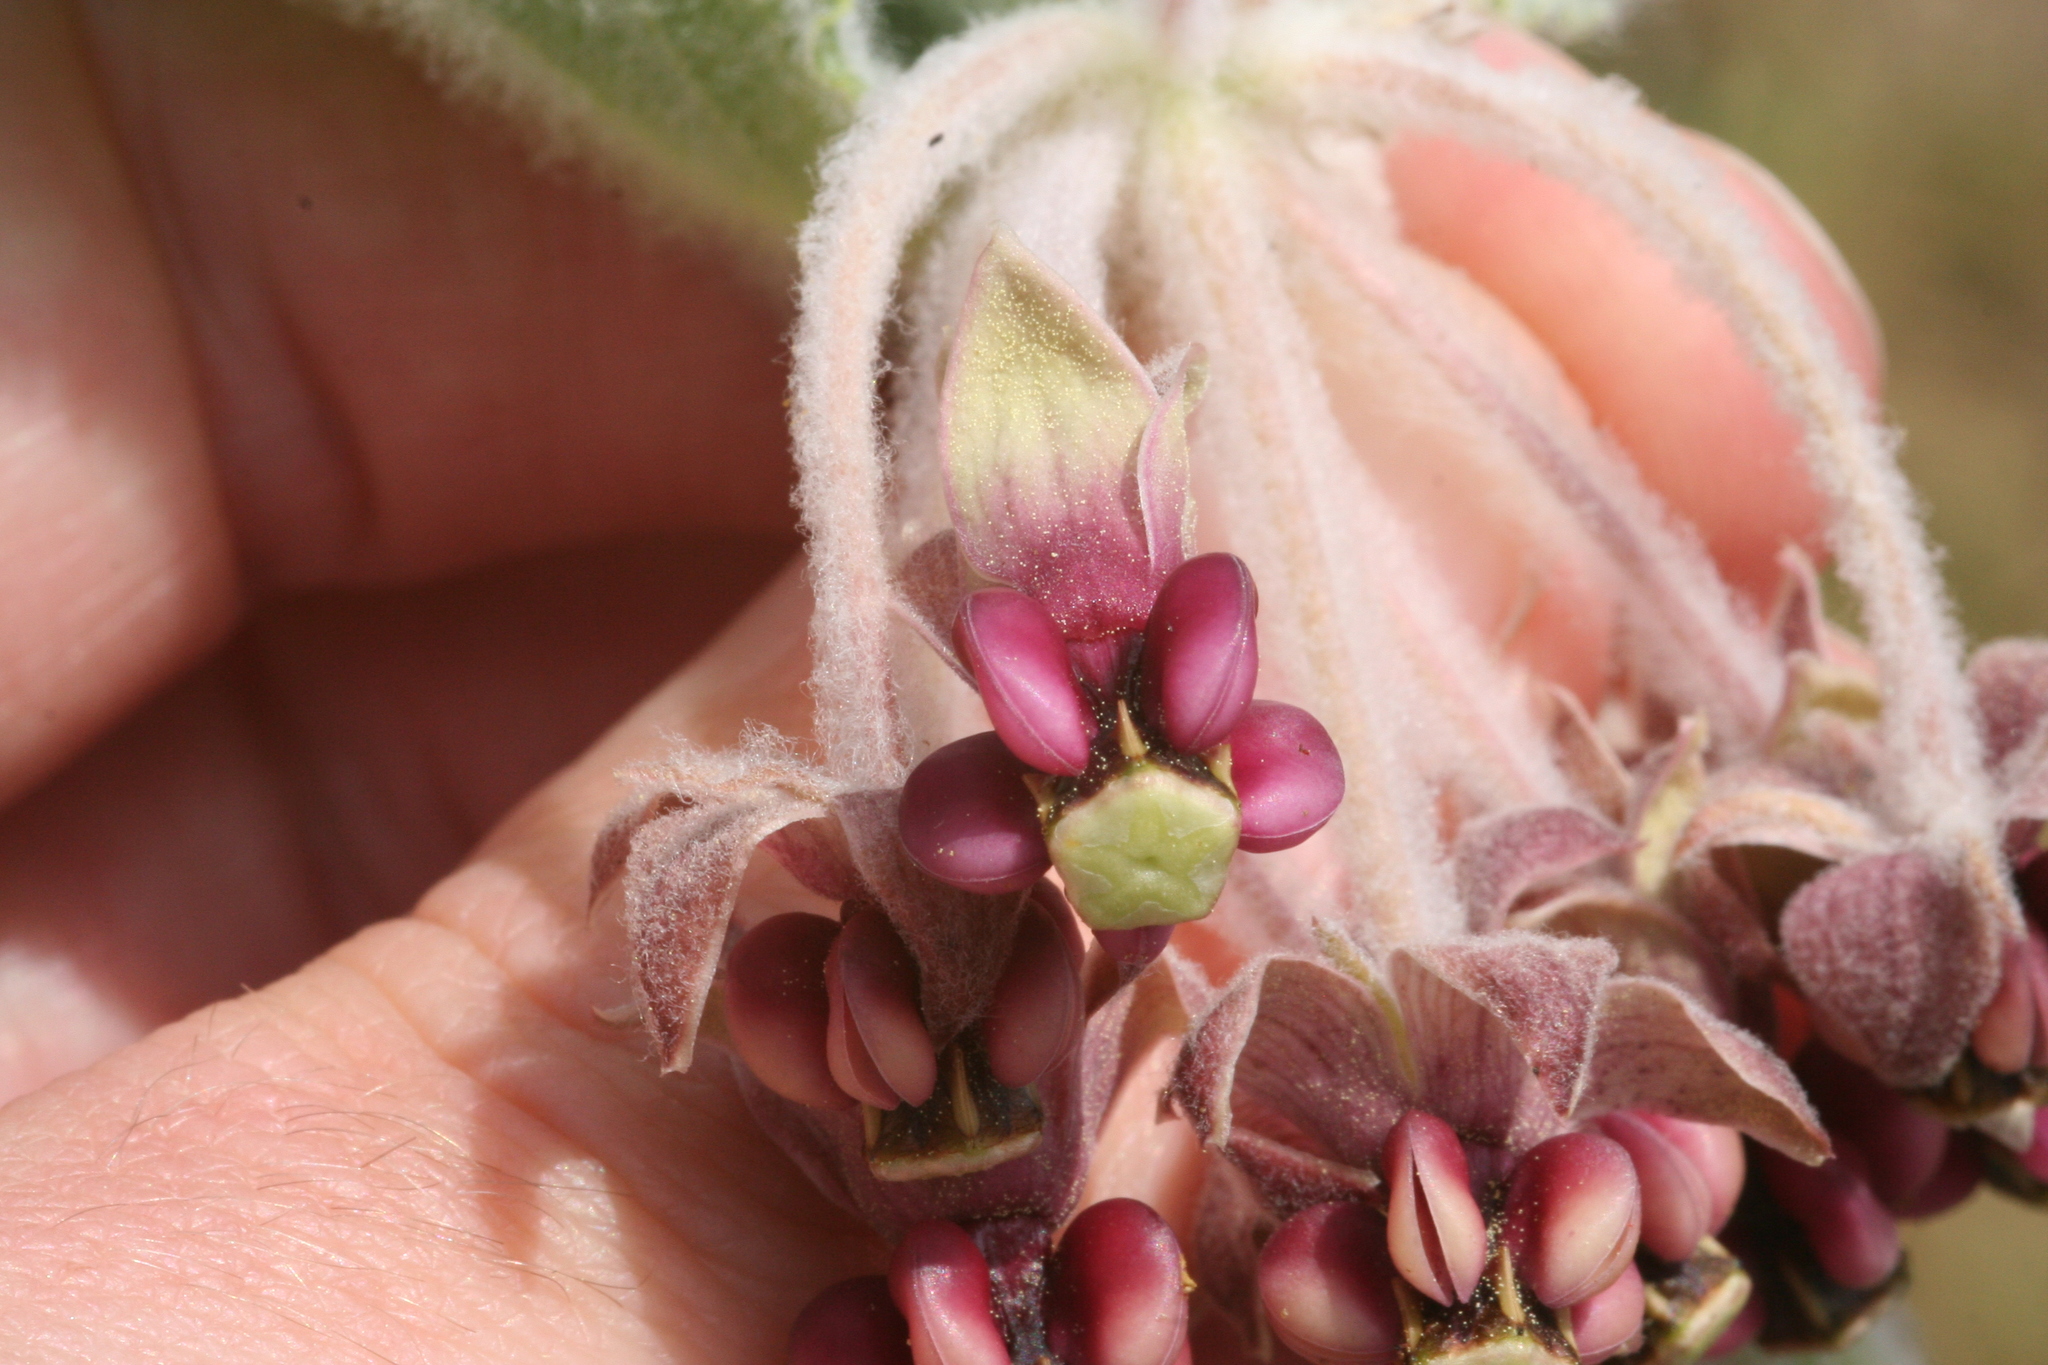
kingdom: Plantae
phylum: Tracheophyta
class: Magnoliopsida
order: Gentianales
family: Apocynaceae
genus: Asclepias
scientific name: Asclepias californica
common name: California milkweed
